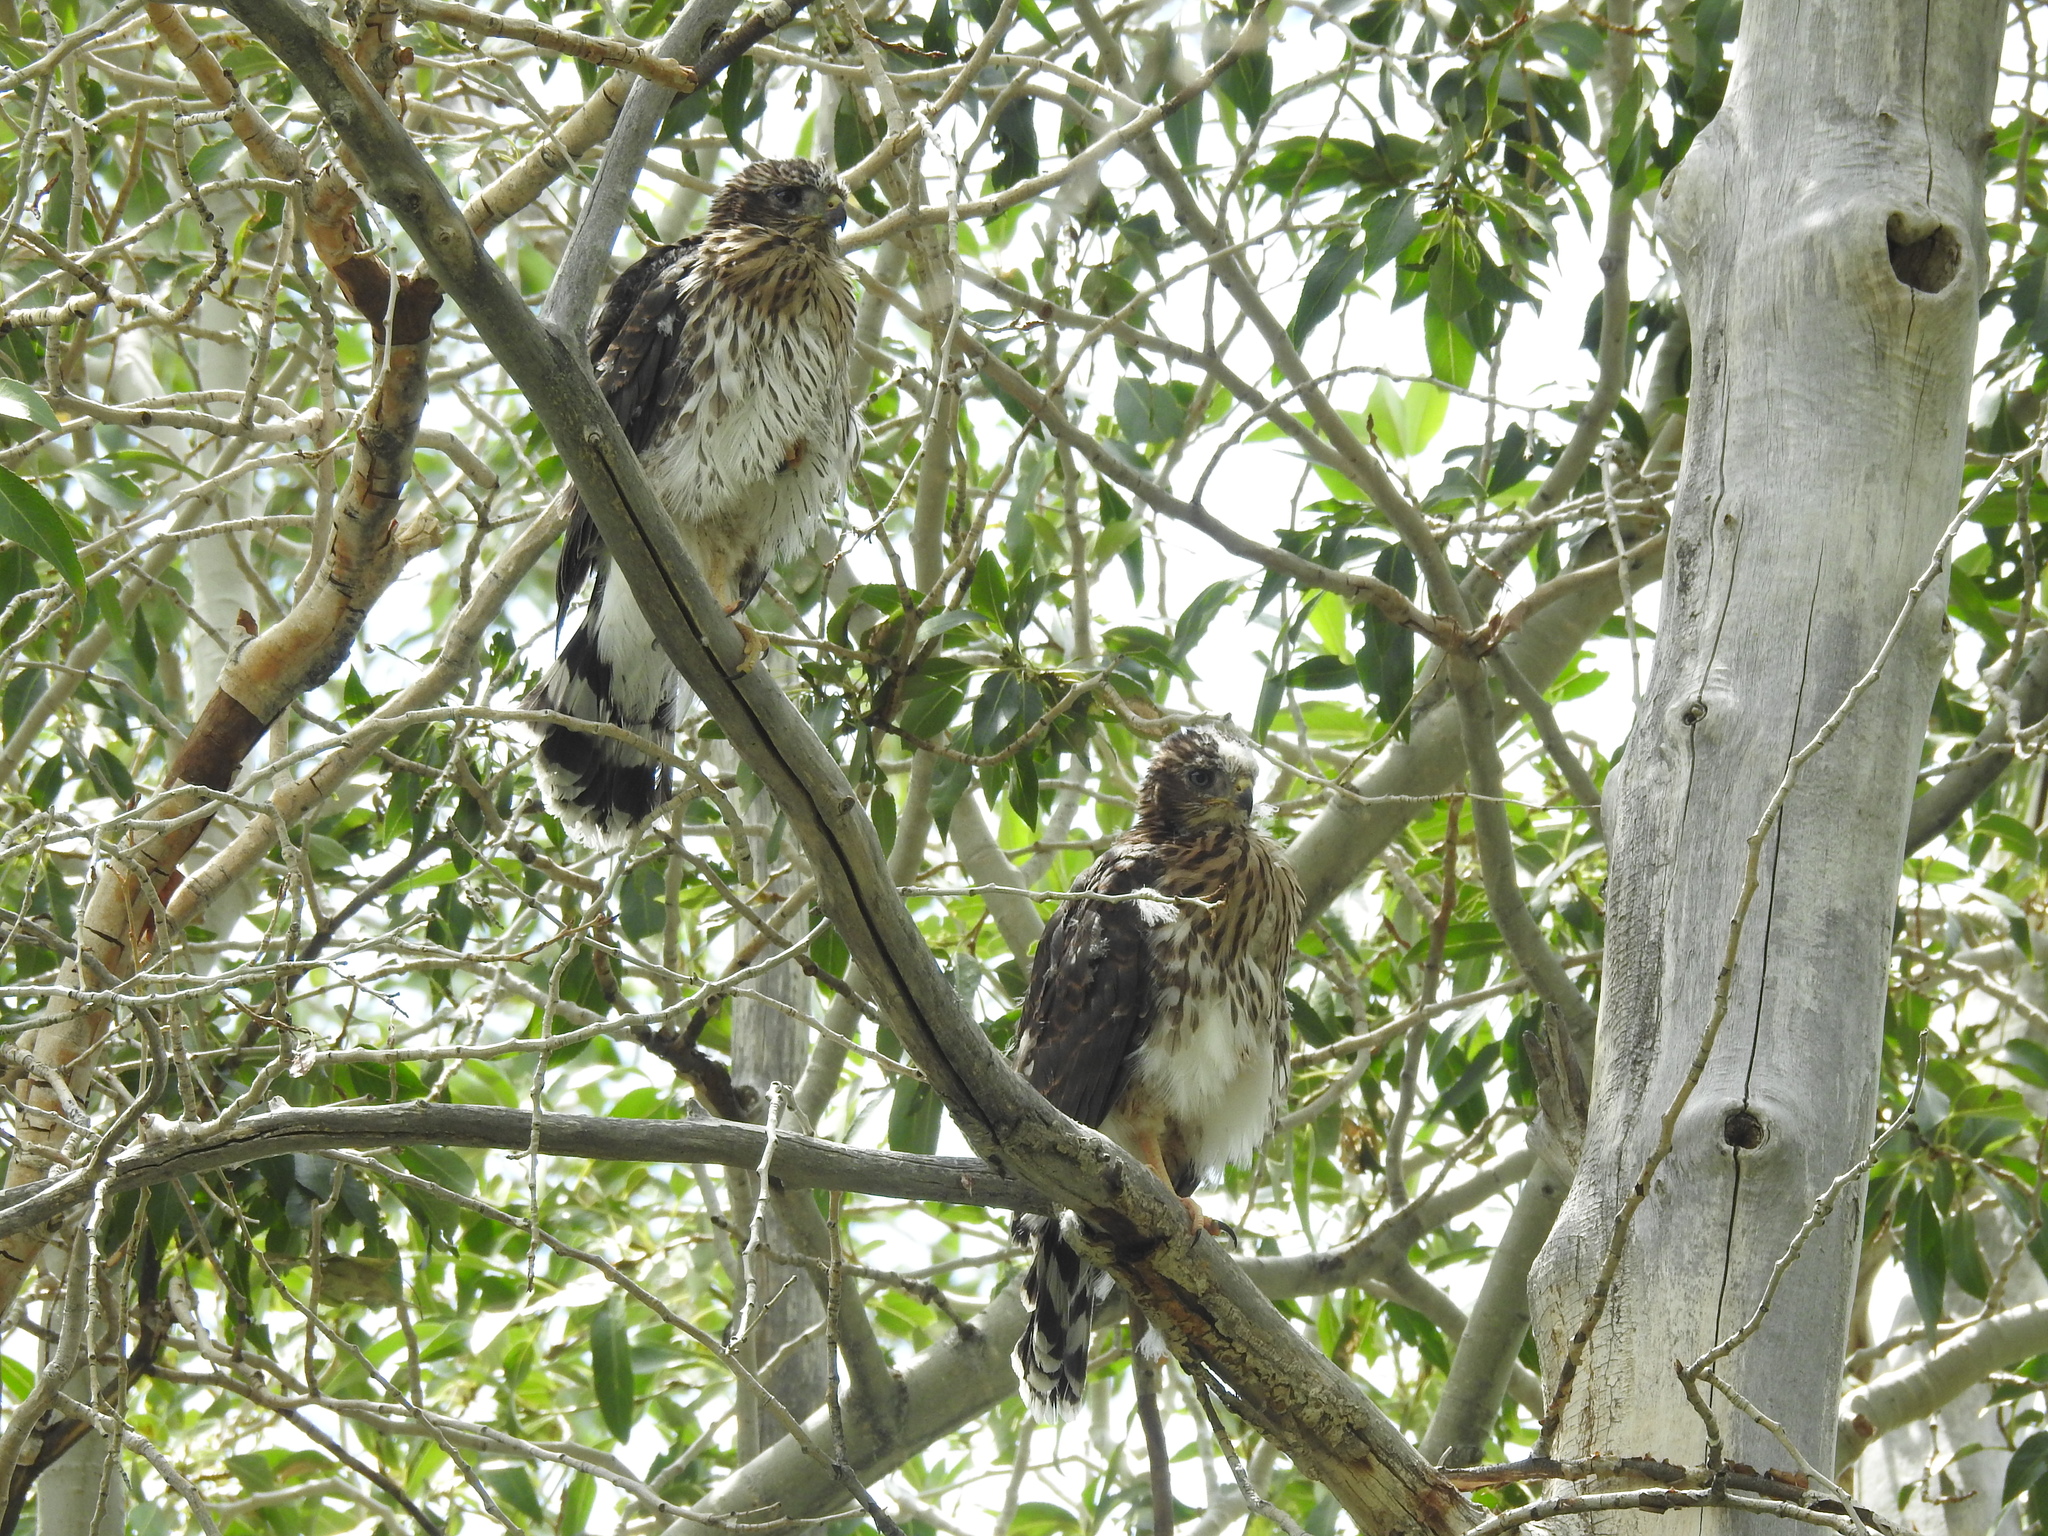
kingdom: Animalia
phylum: Chordata
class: Aves
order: Accipitriformes
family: Accipitridae
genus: Accipiter
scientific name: Accipiter cooperii
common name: Cooper's hawk
